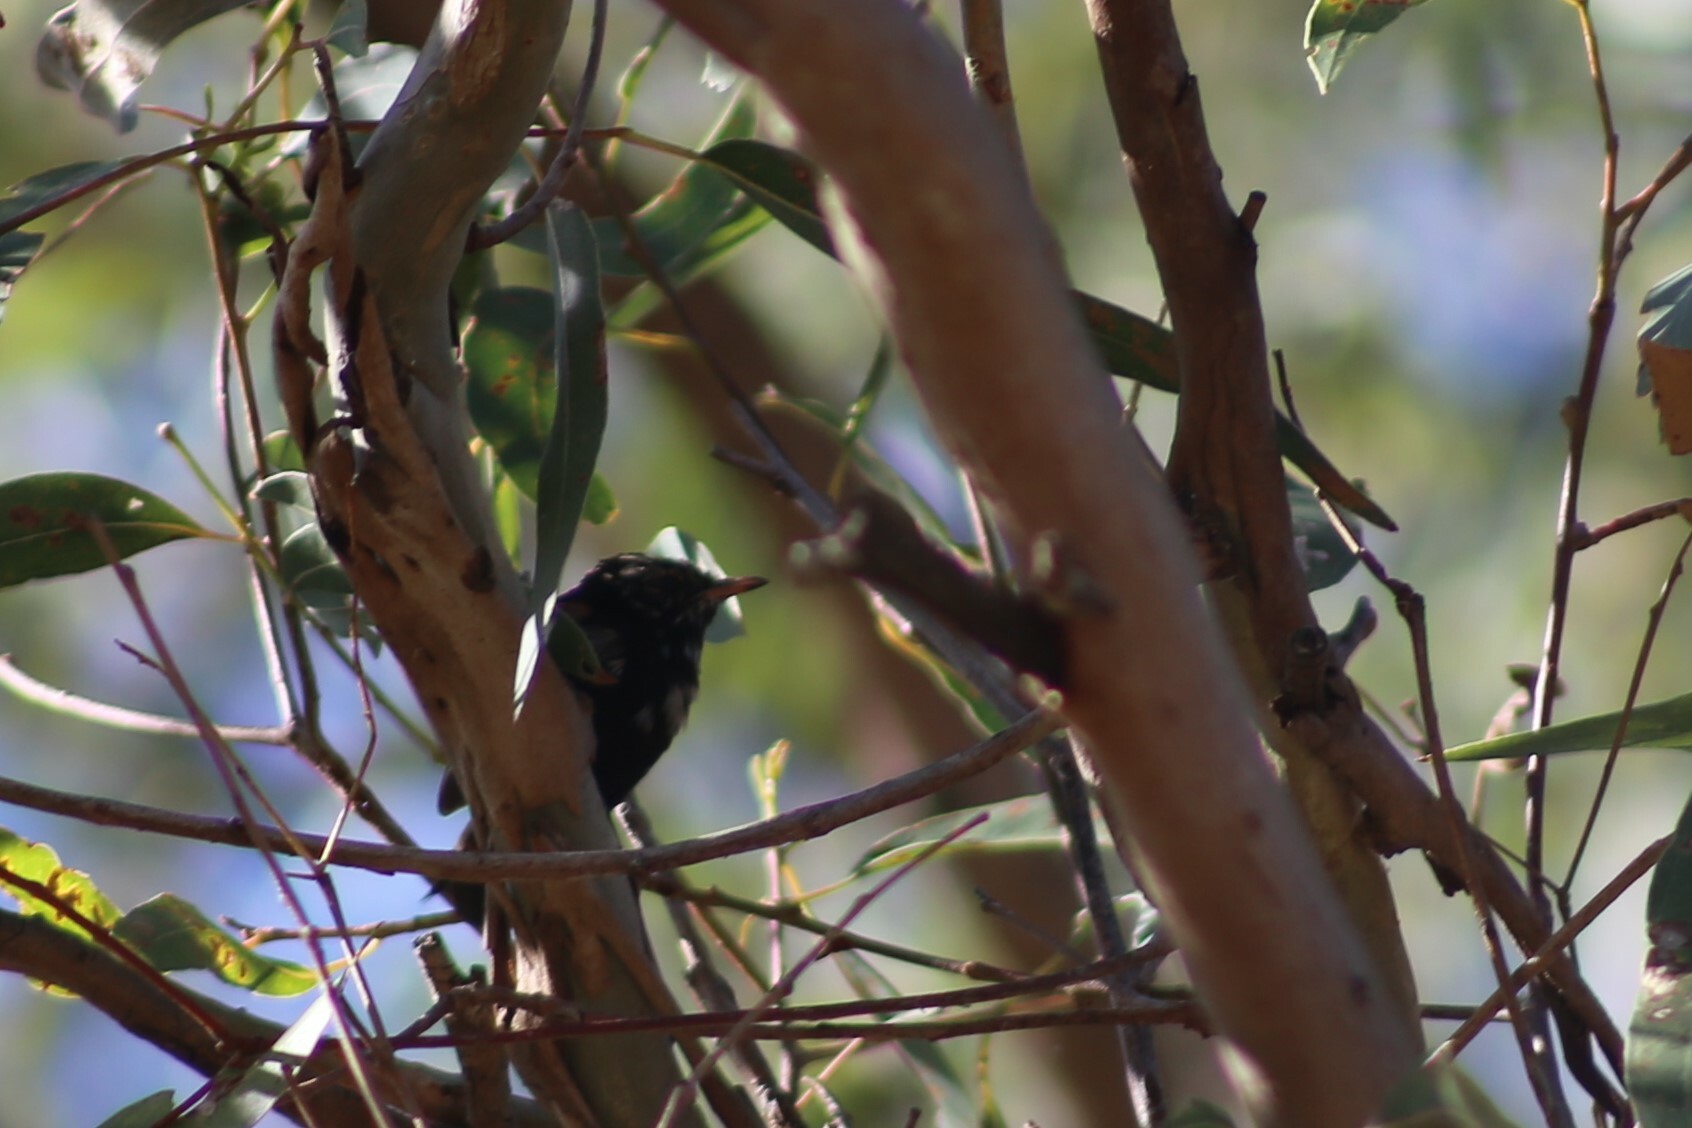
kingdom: Animalia
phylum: Chordata
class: Aves
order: Passeriformes
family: Maluridae
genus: Malurus
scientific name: Malurus melanocephalus
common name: Red-backed fairywren
